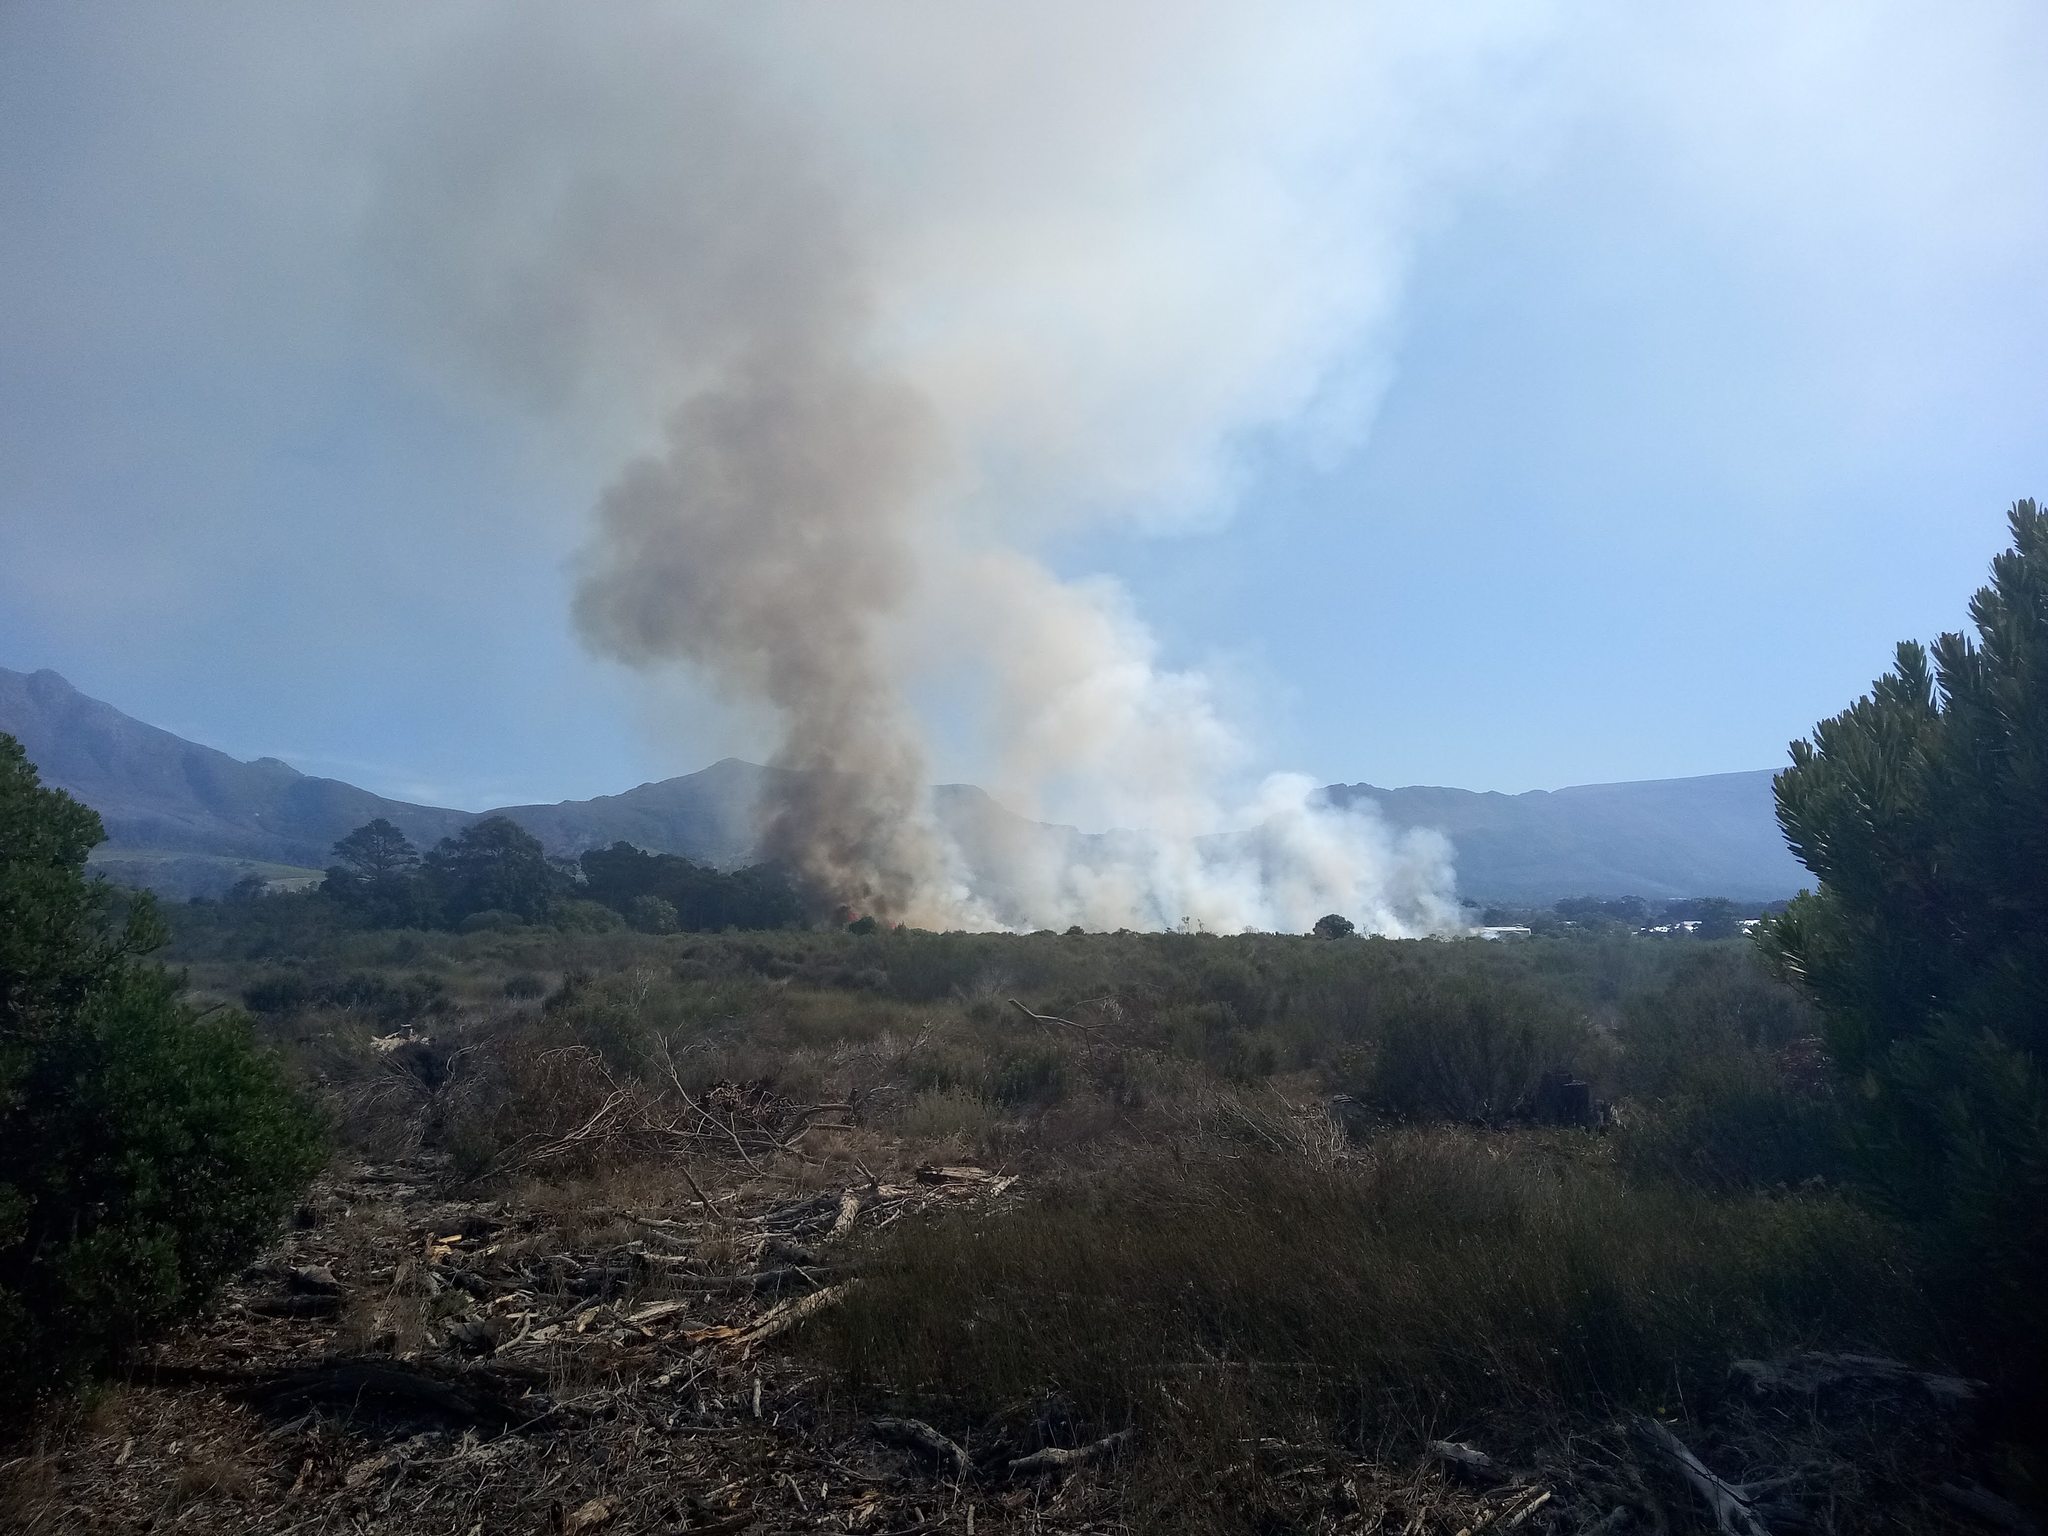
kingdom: Plantae
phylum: Tracheophyta
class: Liliopsida
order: Poales
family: Restionaceae
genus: Willdenowia
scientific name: Willdenowia sulcata
